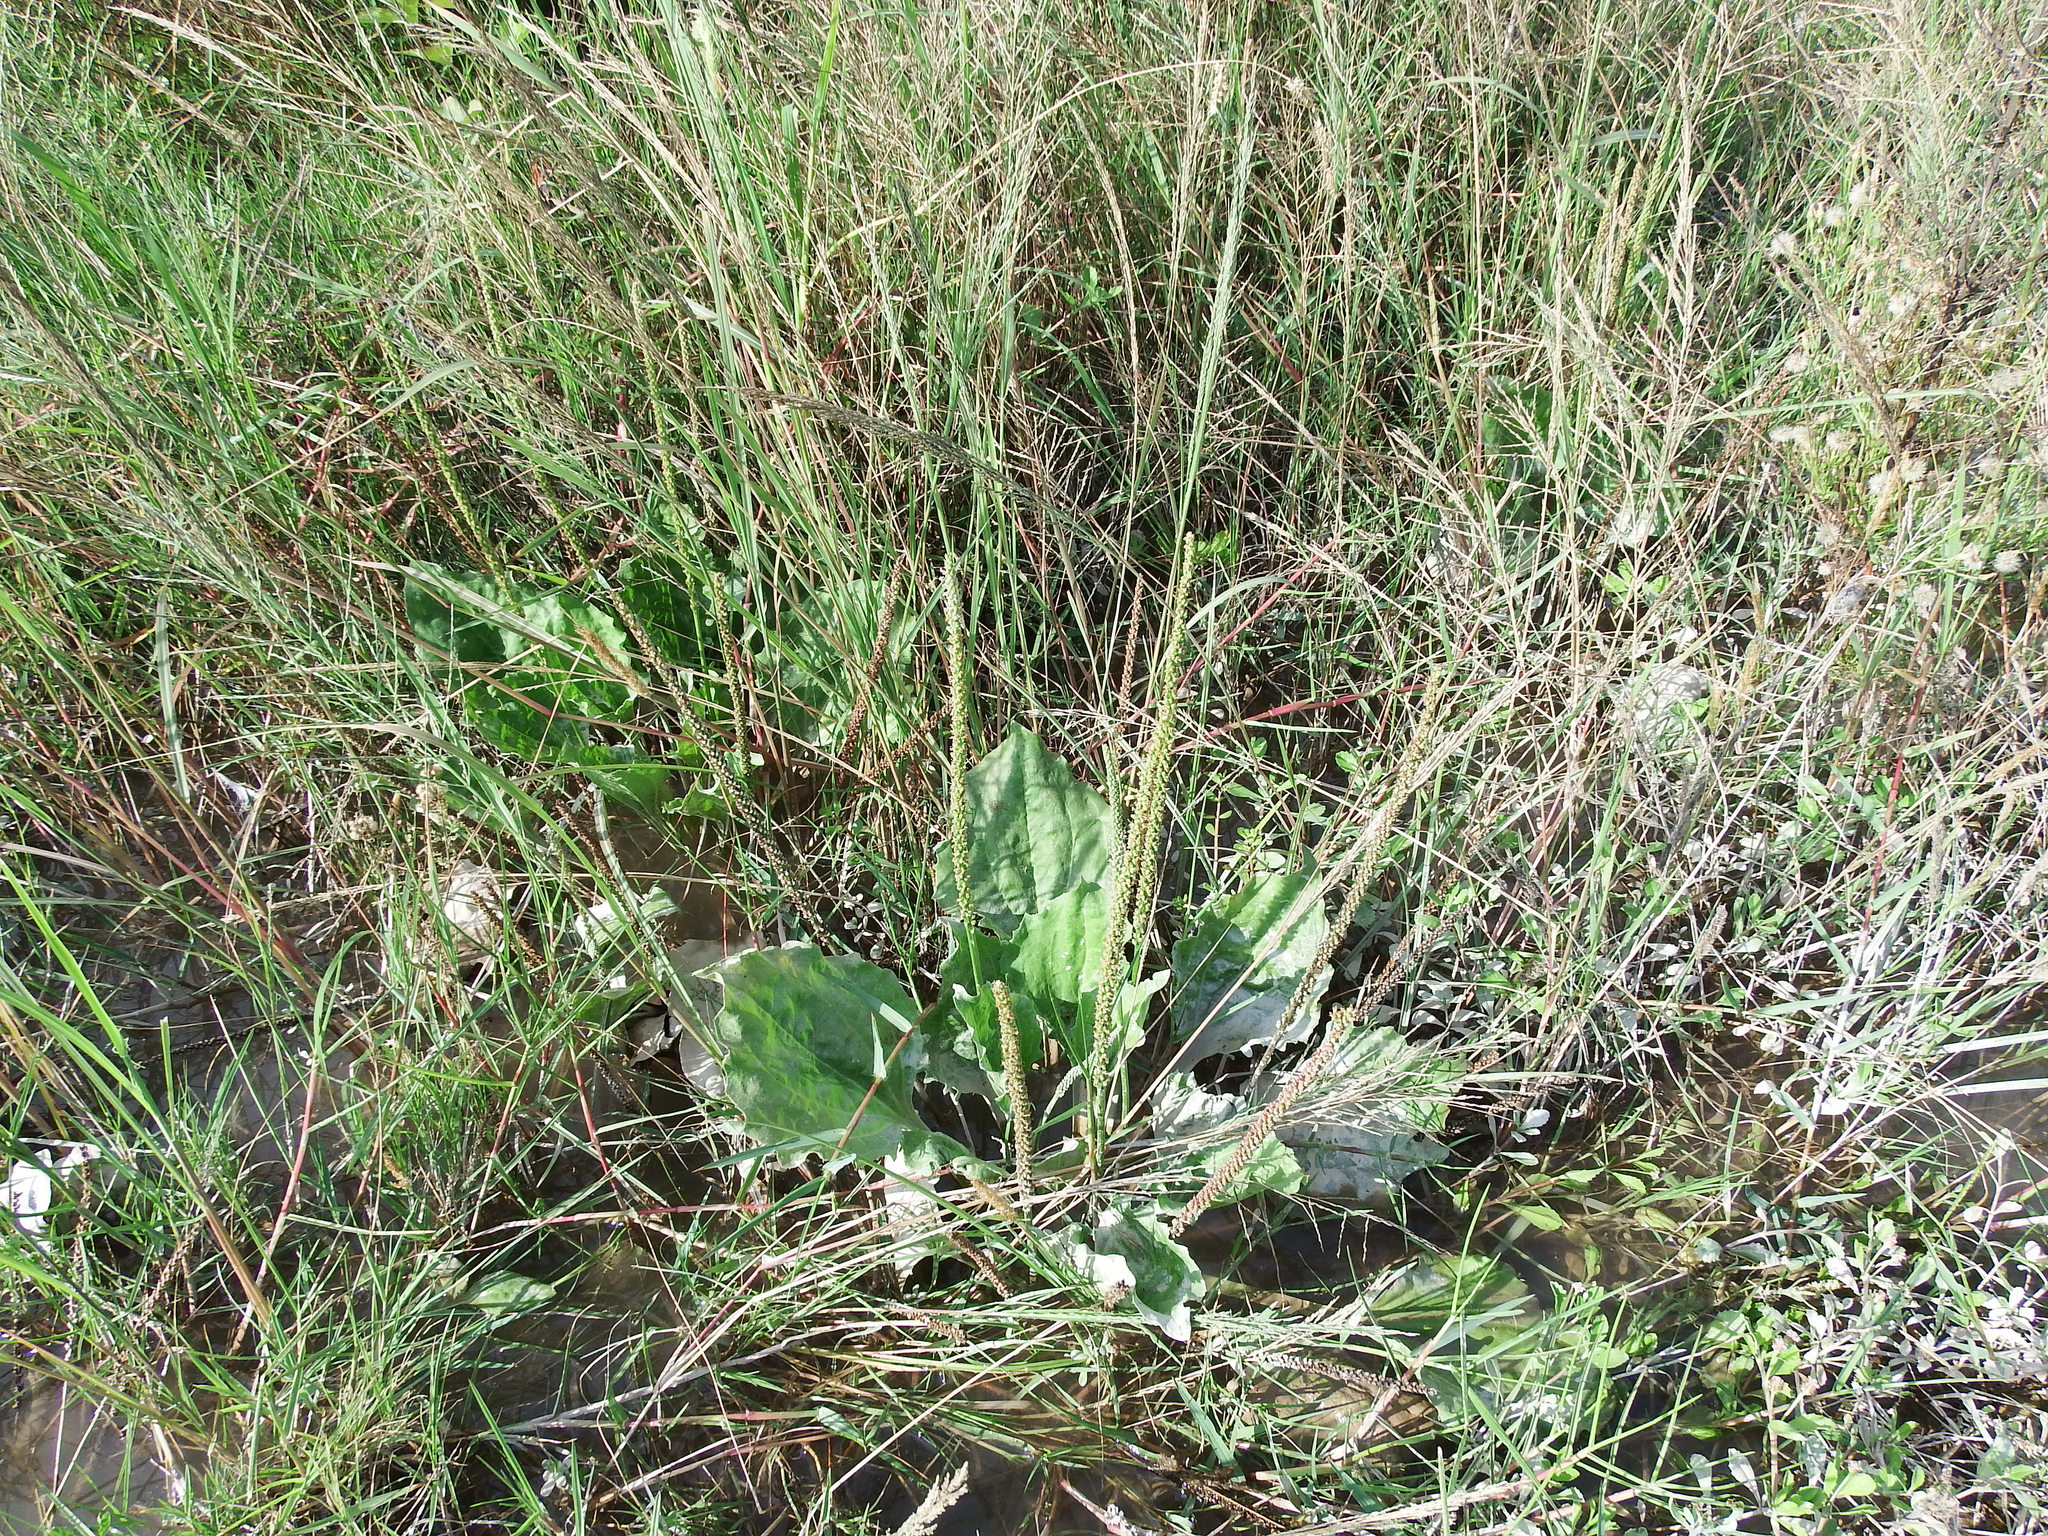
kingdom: Plantae
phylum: Tracheophyta
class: Magnoliopsida
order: Lamiales
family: Plantaginaceae
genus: Plantago
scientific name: Plantago major
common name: Common plantain
